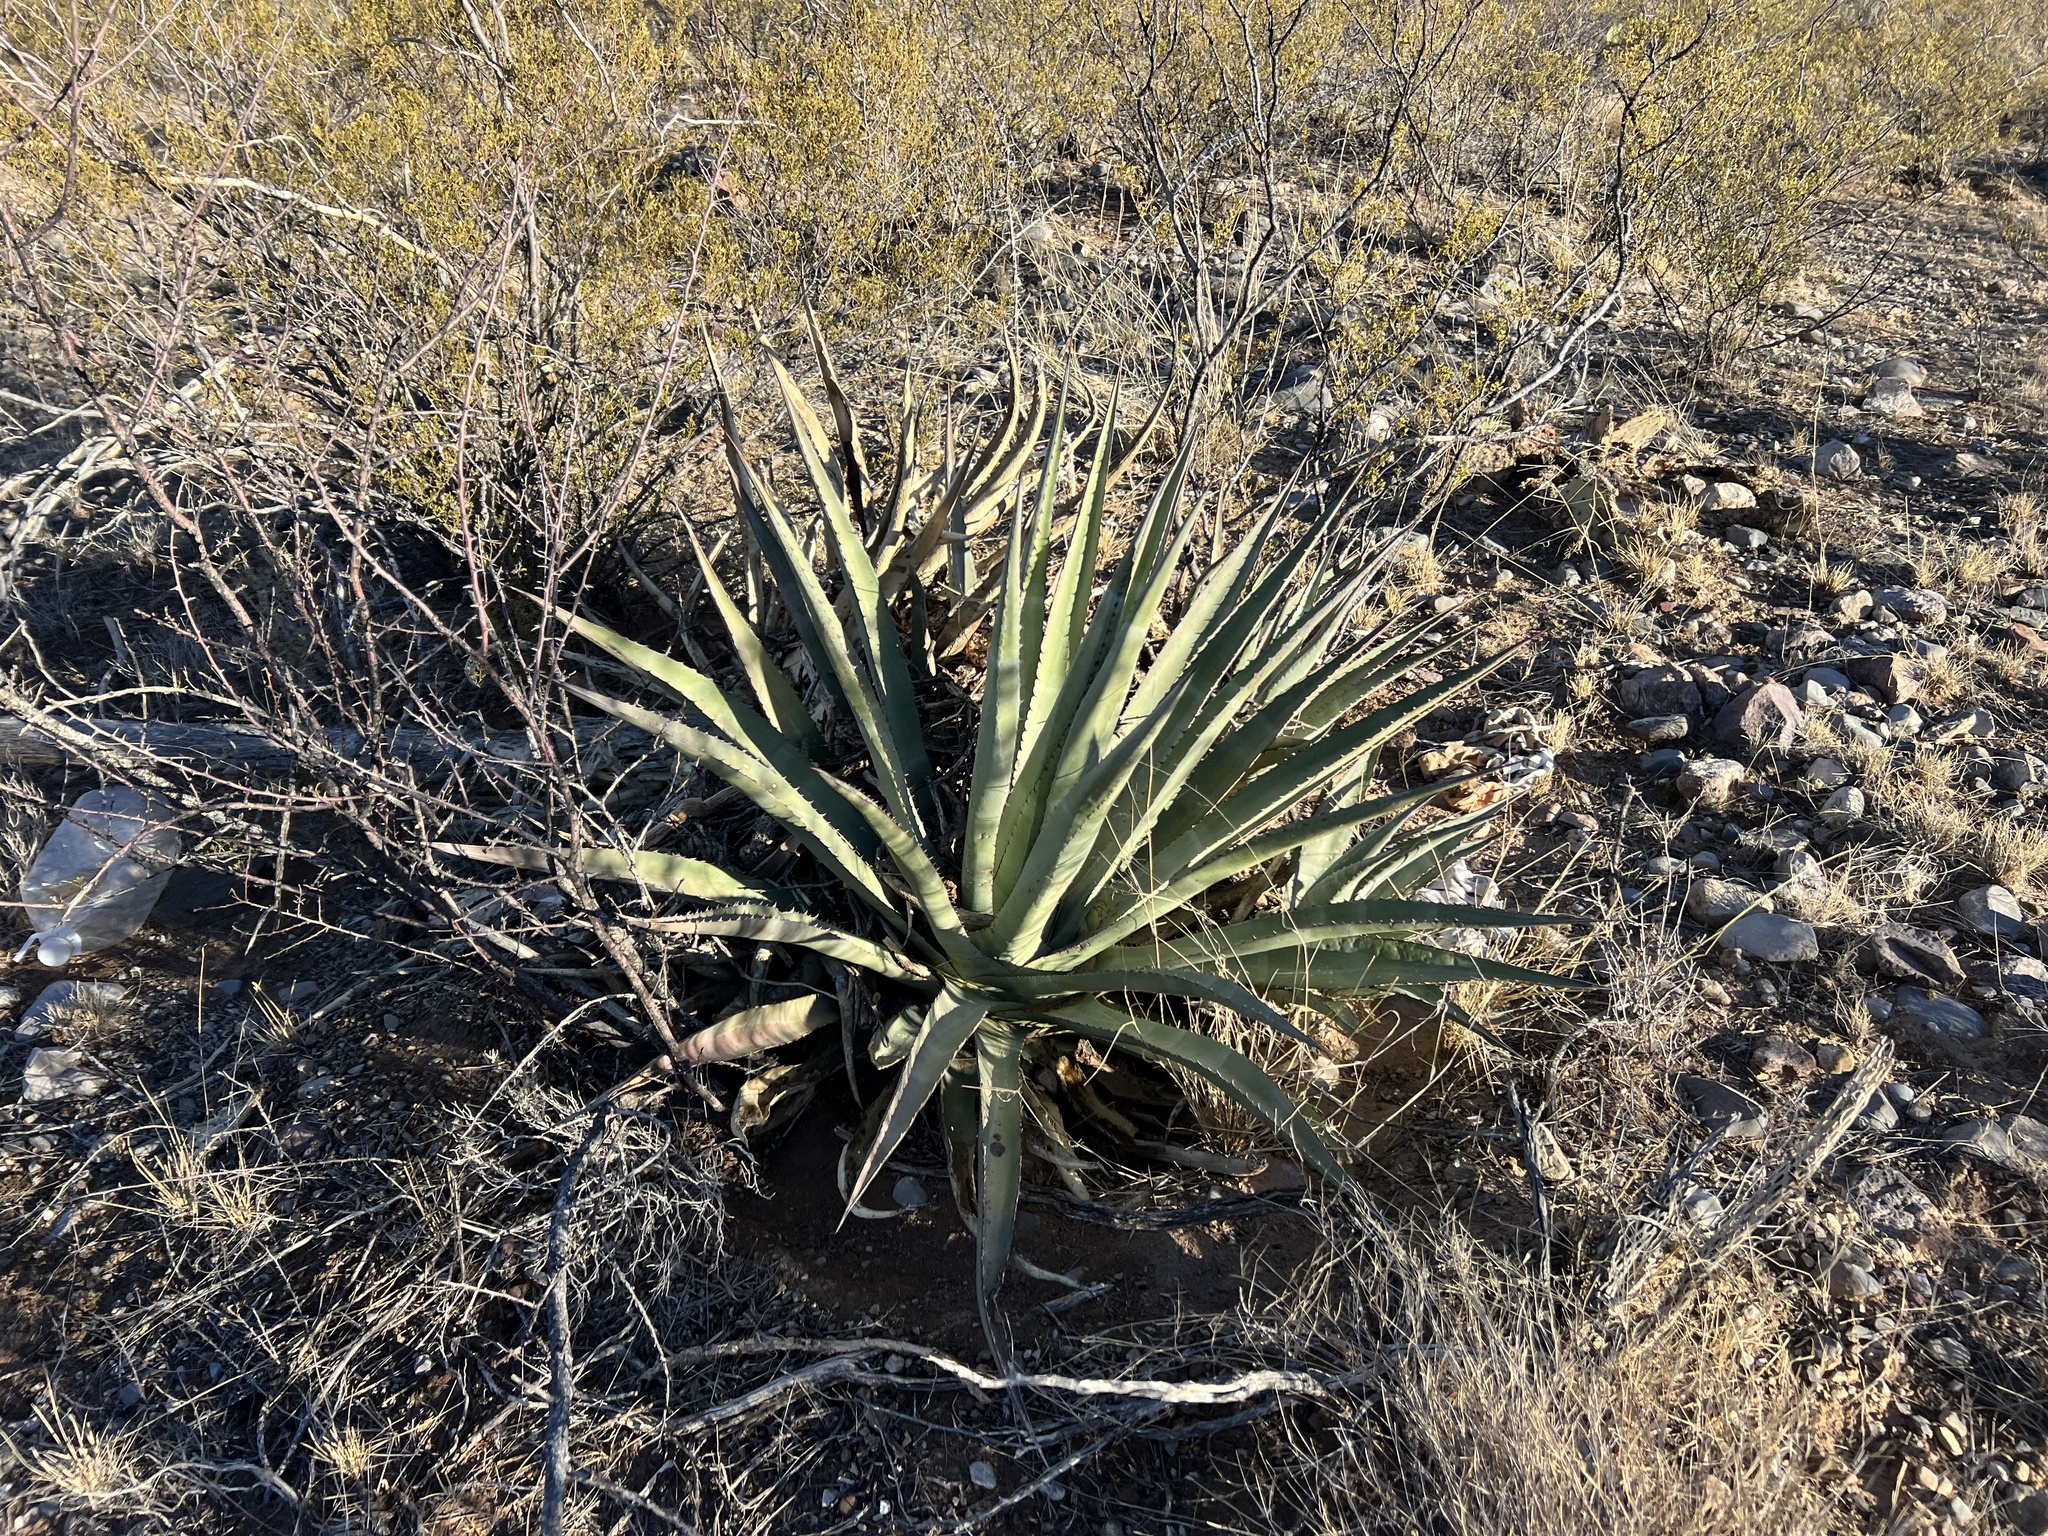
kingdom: Plantae
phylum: Tracheophyta
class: Liliopsida
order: Asparagales
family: Asparagaceae
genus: Agave
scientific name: Agave palmeri
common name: Palmer agave
